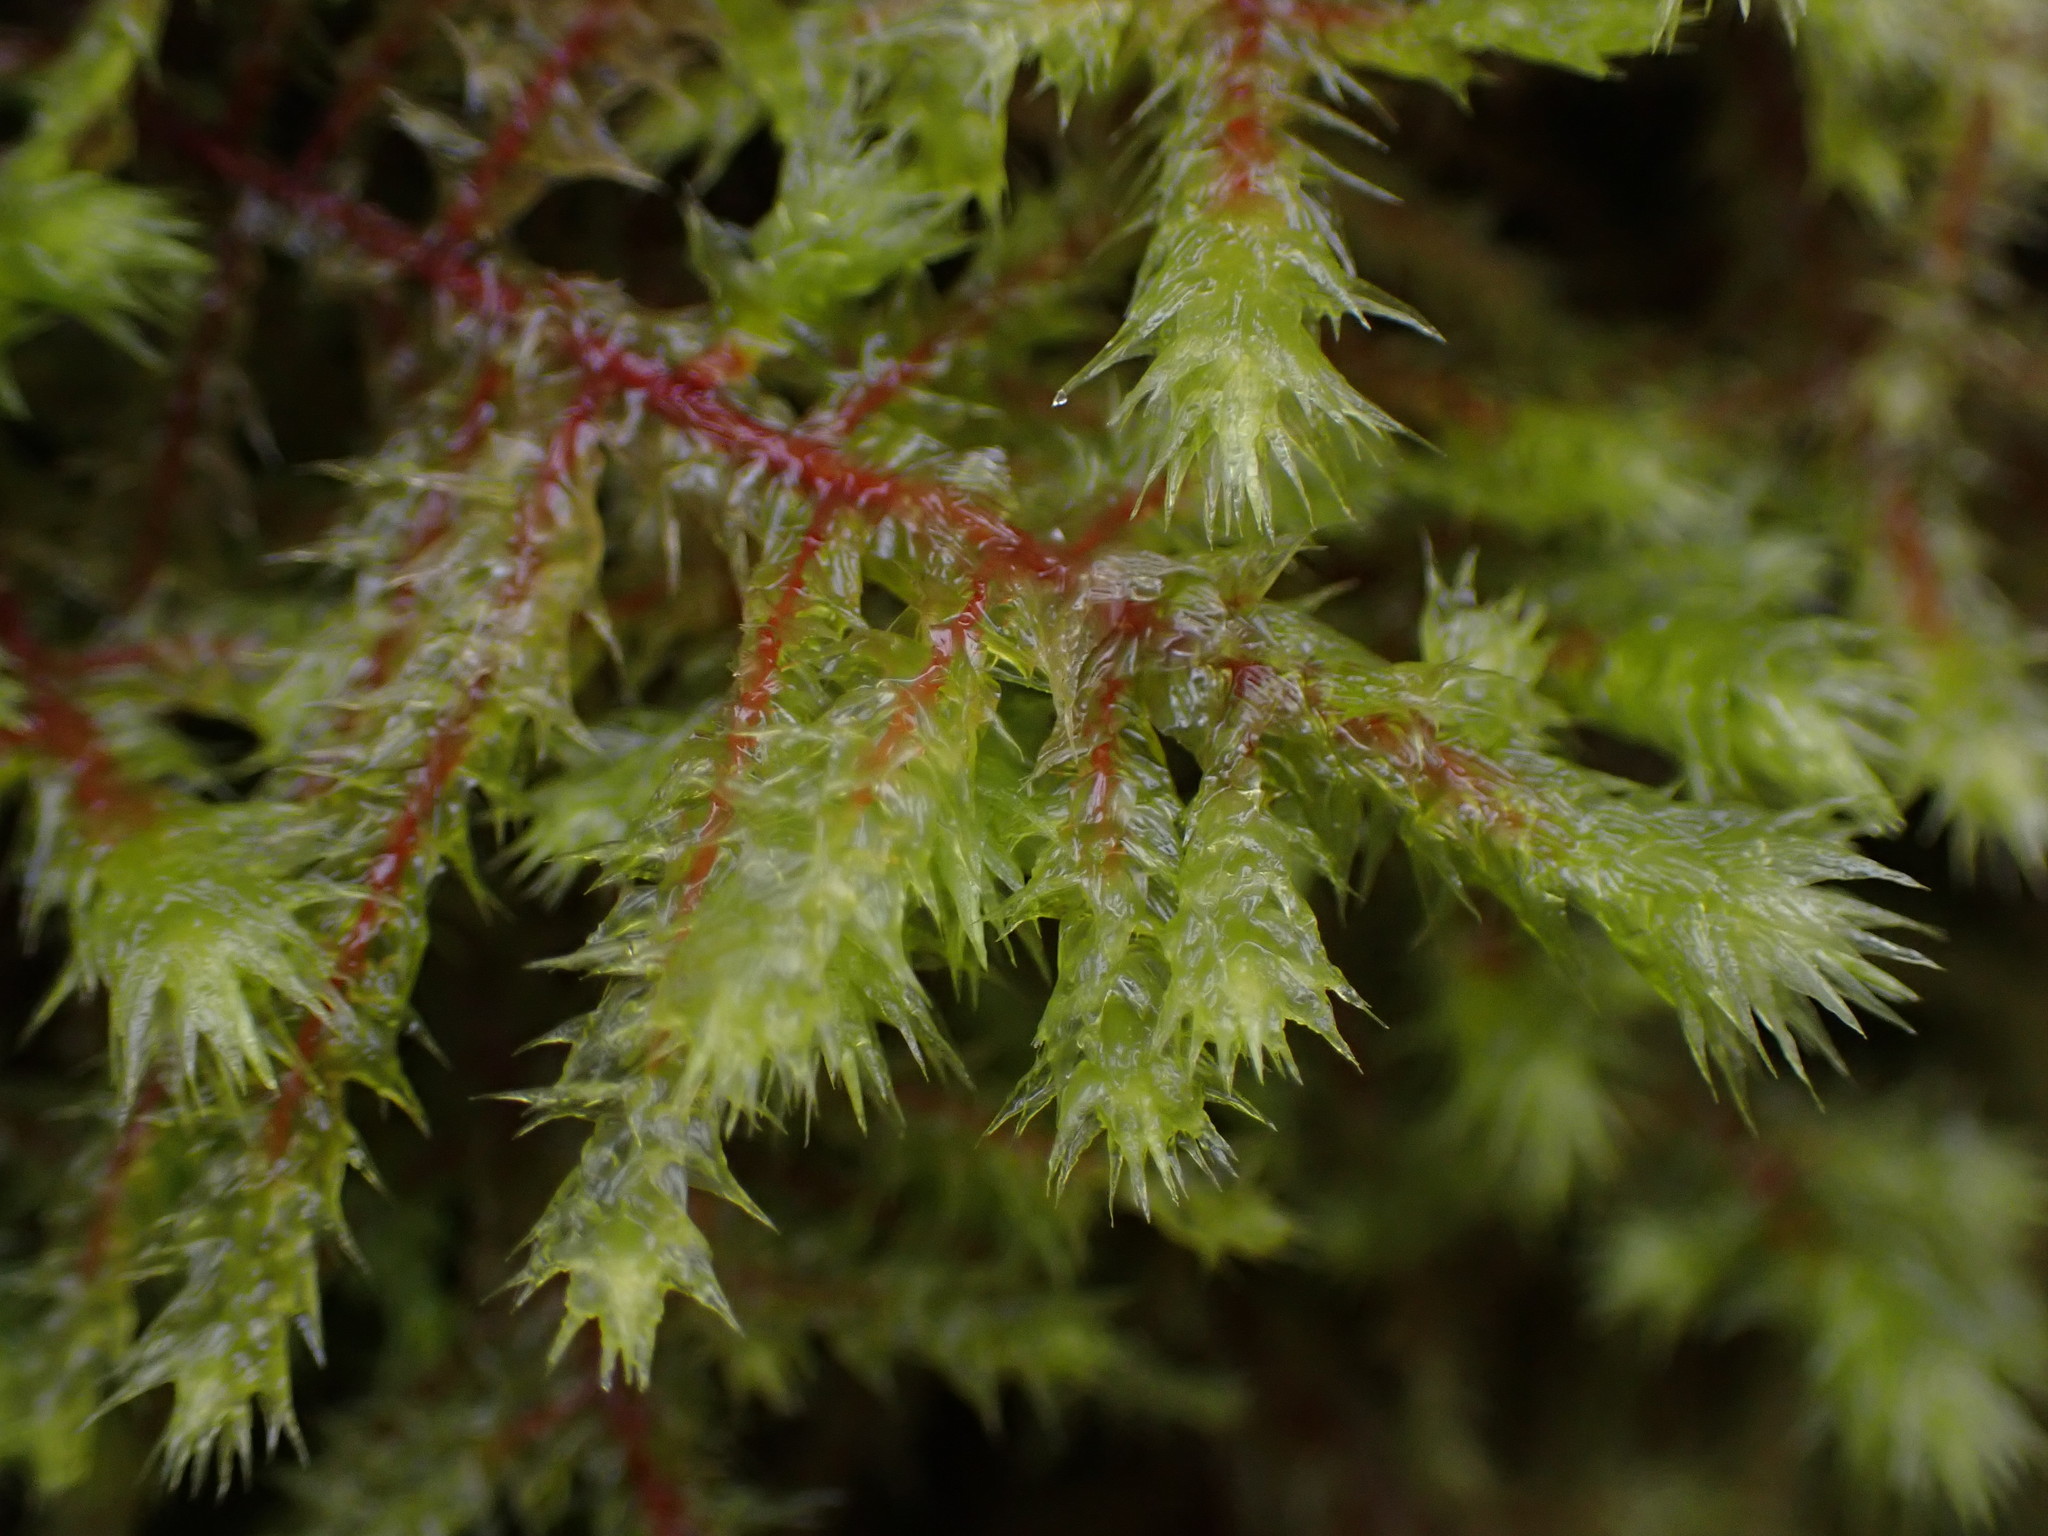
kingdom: Plantae
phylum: Bryophyta
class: Bryopsida
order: Hypnales
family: Hylocomiaceae
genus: Hylocomiadelphus
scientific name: Hylocomiadelphus triquetrus
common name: Rough goose neck moss
